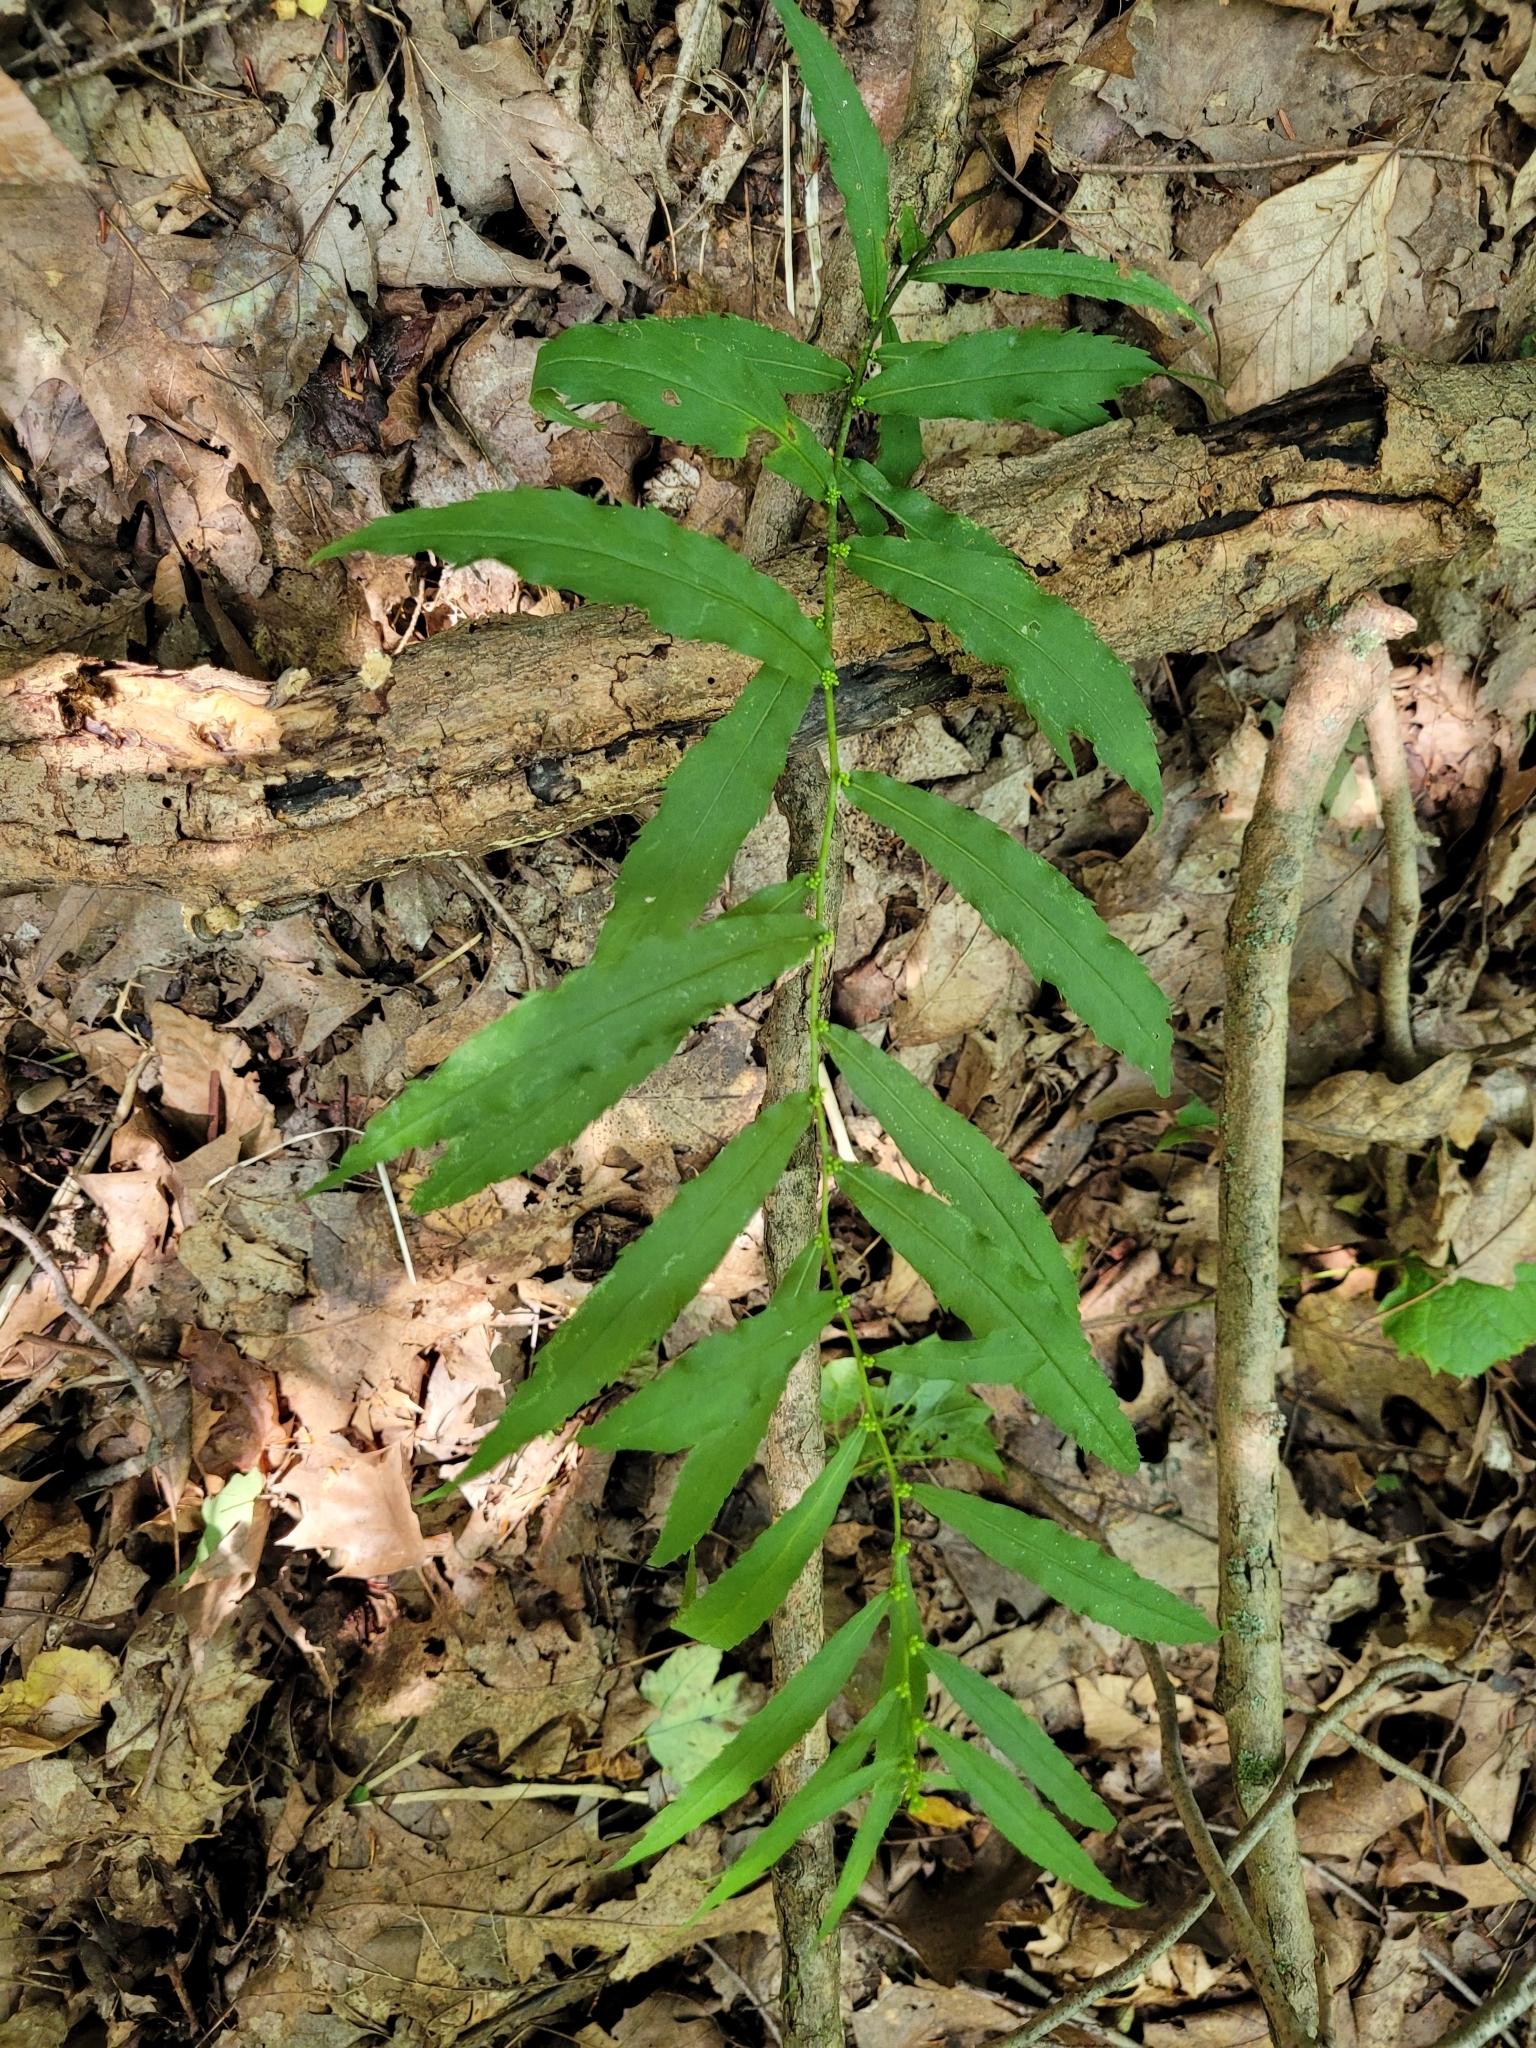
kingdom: Plantae
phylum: Tracheophyta
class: Magnoliopsida
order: Asterales
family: Asteraceae
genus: Solidago
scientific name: Solidago caesia
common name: Woodland goldenrod
